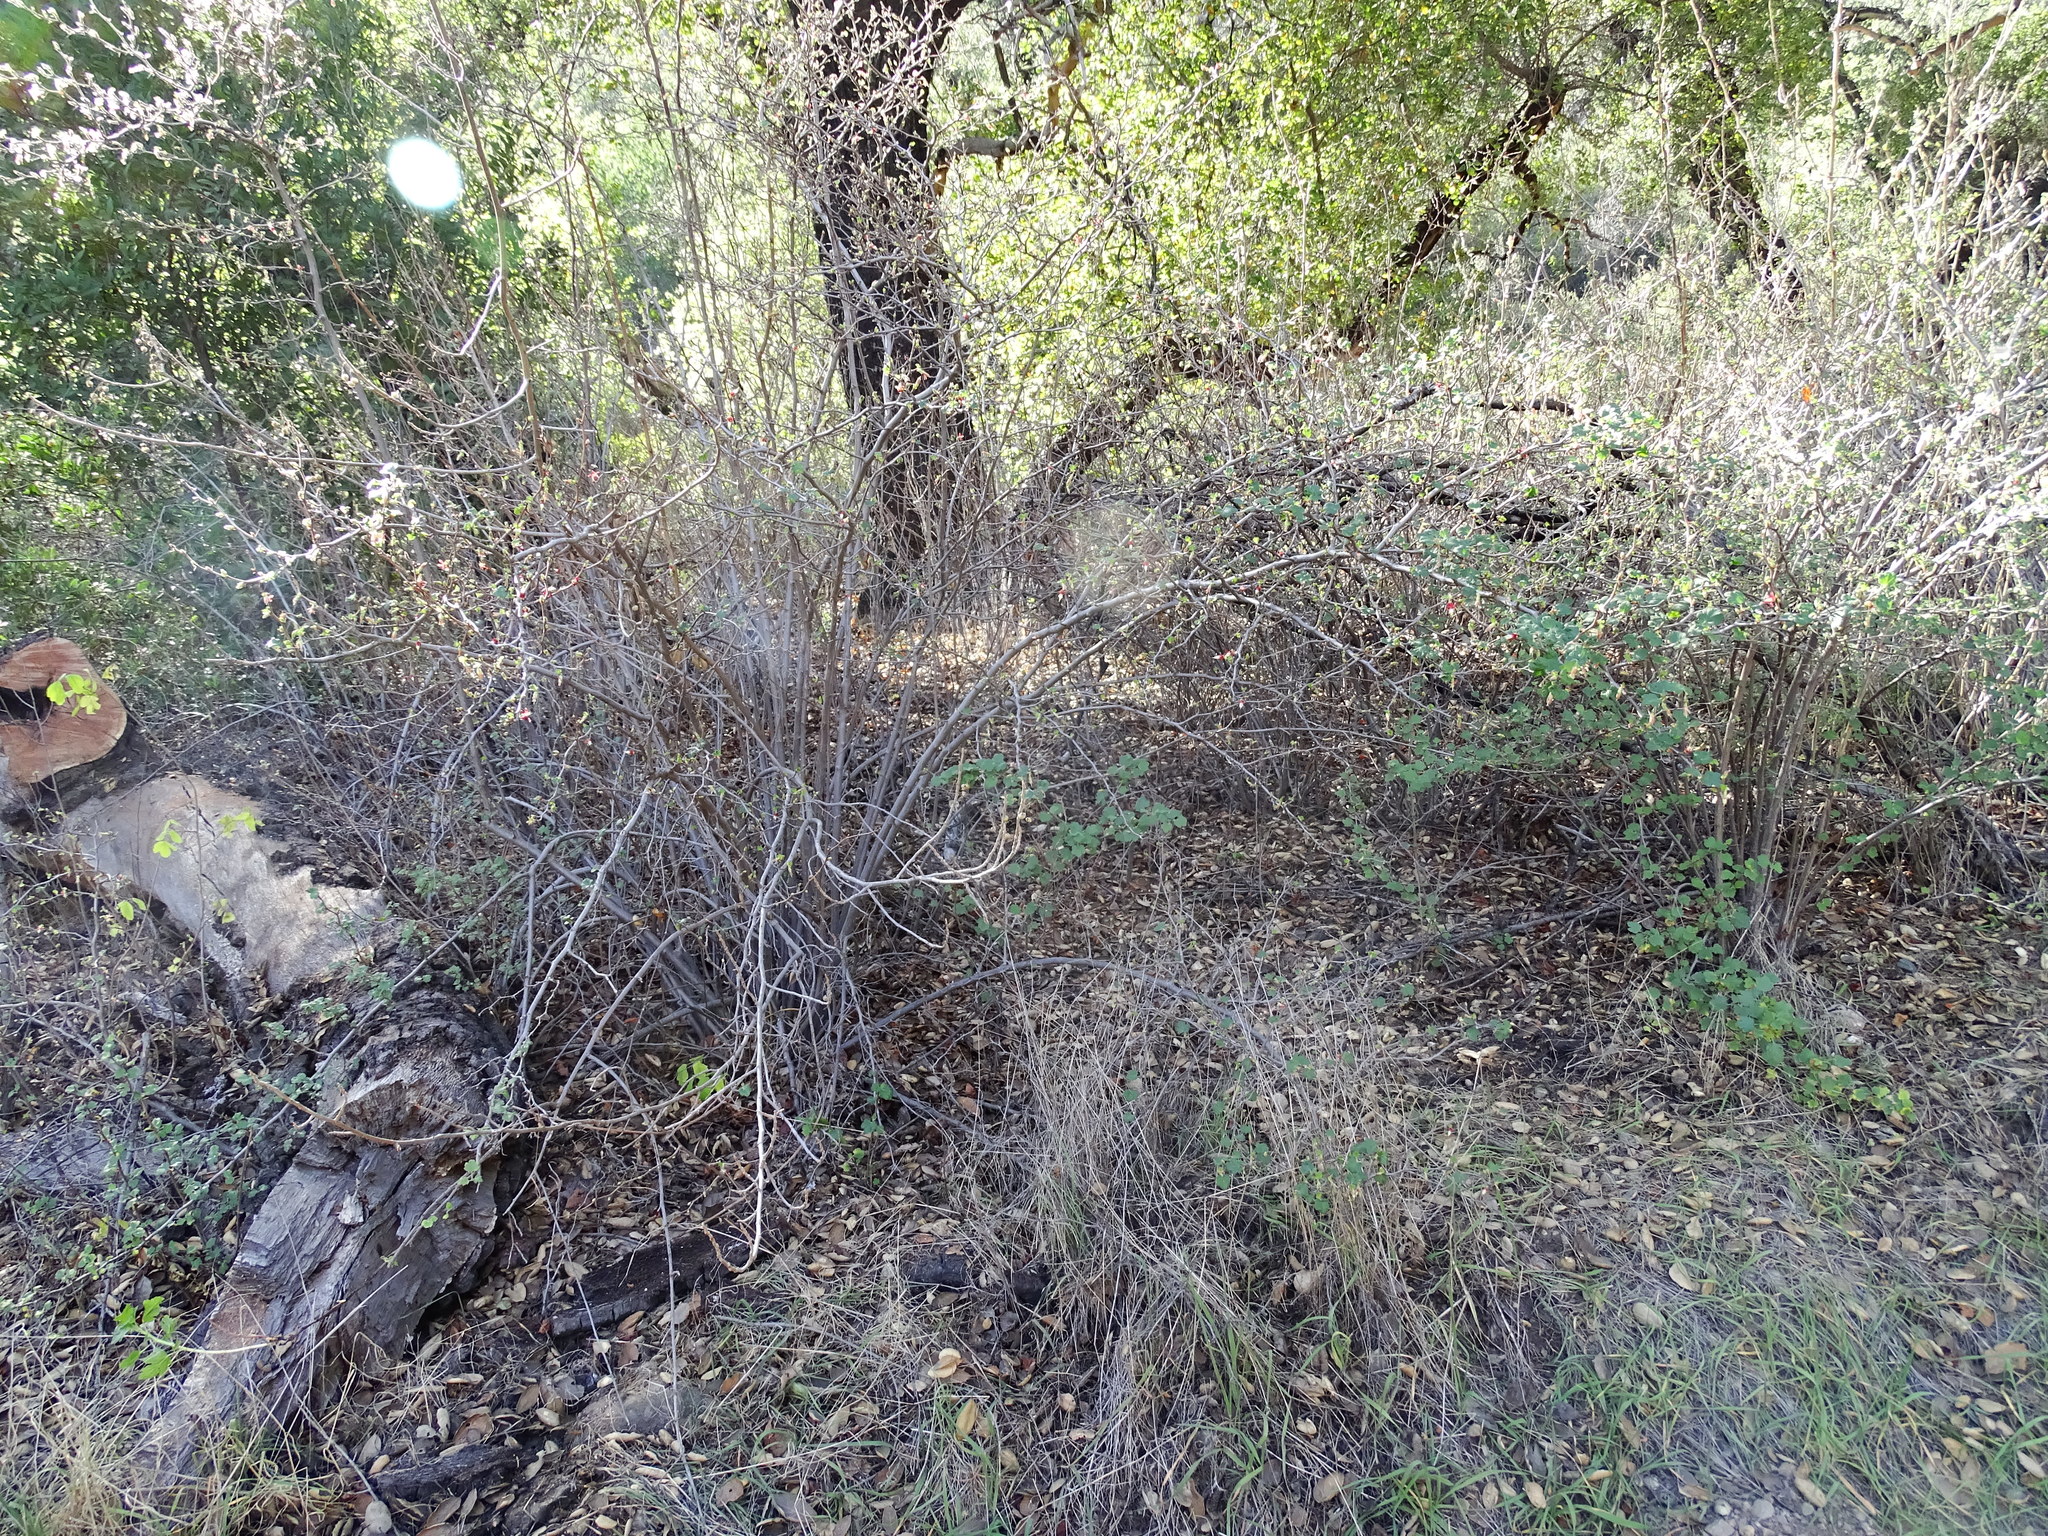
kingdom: Plantae
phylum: Tracheophyta
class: Magnoliopsida
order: Saxifragales
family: Grossulariaceae
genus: Ribes
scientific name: Ribes californicum
